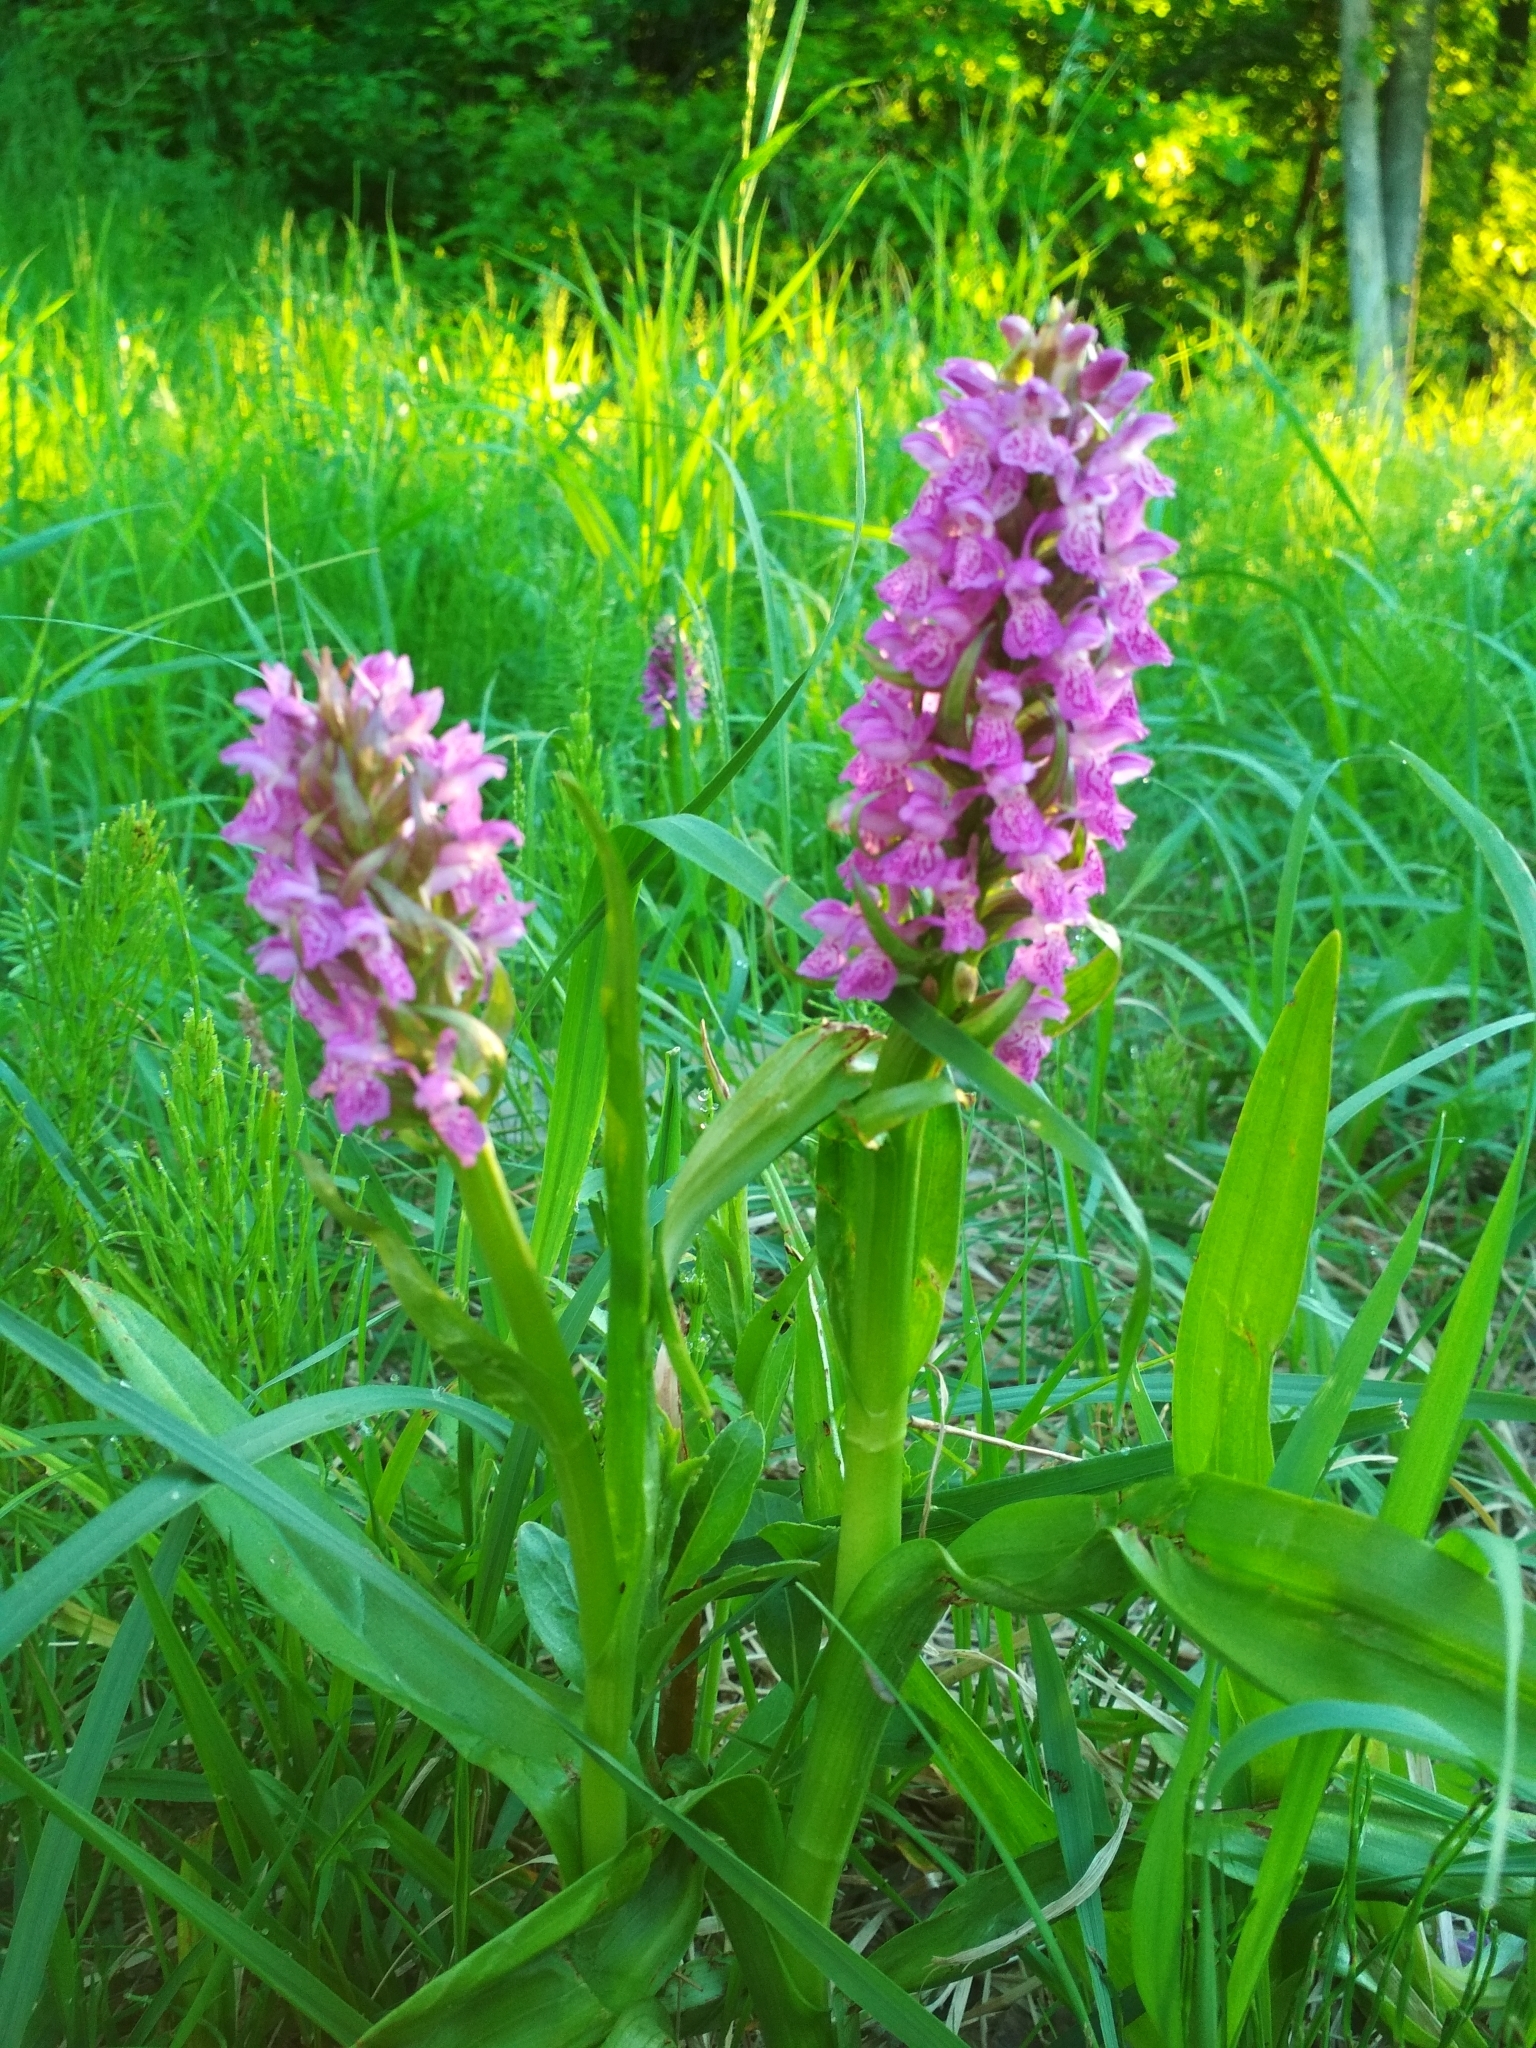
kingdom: Plantae
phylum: Tracheophyta
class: Liliopsida
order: Asparagales
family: Orchidaceae
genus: Dactylorhiza
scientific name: Dactylorhiza incarnata
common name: Early marsh-orchid
